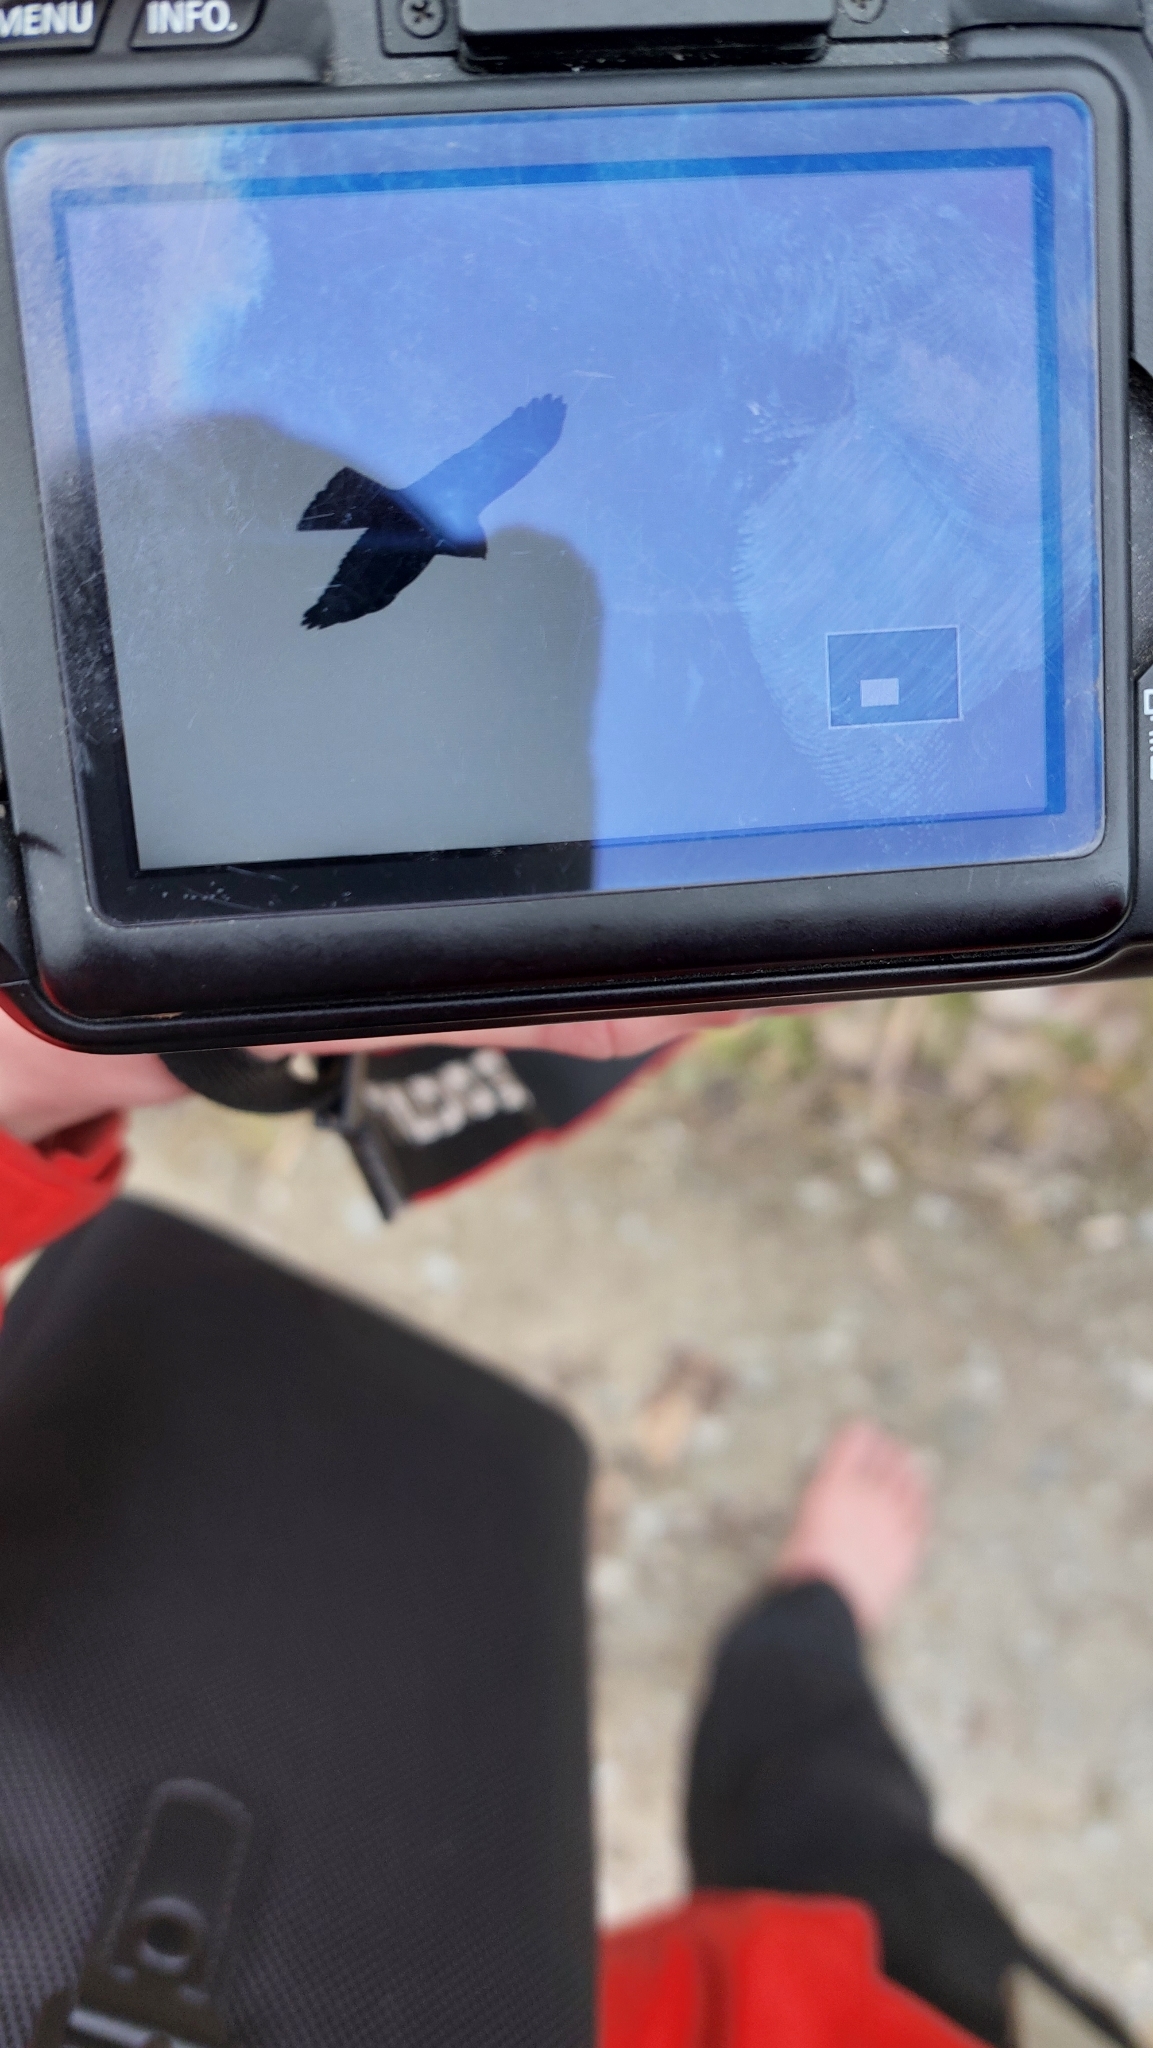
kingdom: Animalia
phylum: Chordata
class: Aves
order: Accipitriformes
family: Accipitridae
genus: Buteo
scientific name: Buteo buteo
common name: Common buzzard
